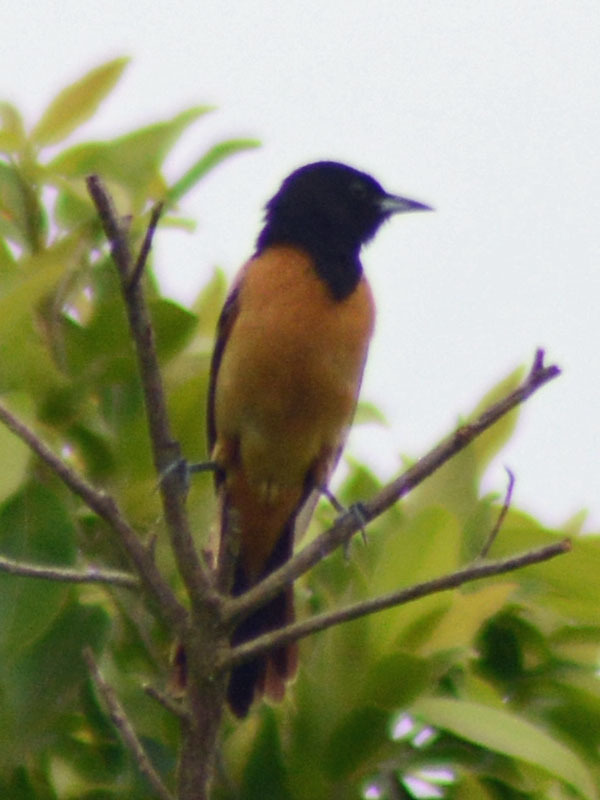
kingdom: Animalia
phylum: Chordata
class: Aves
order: Passeriformes
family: Icteridae
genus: Icterus
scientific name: Icterus spurius
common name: Orchard oriole
